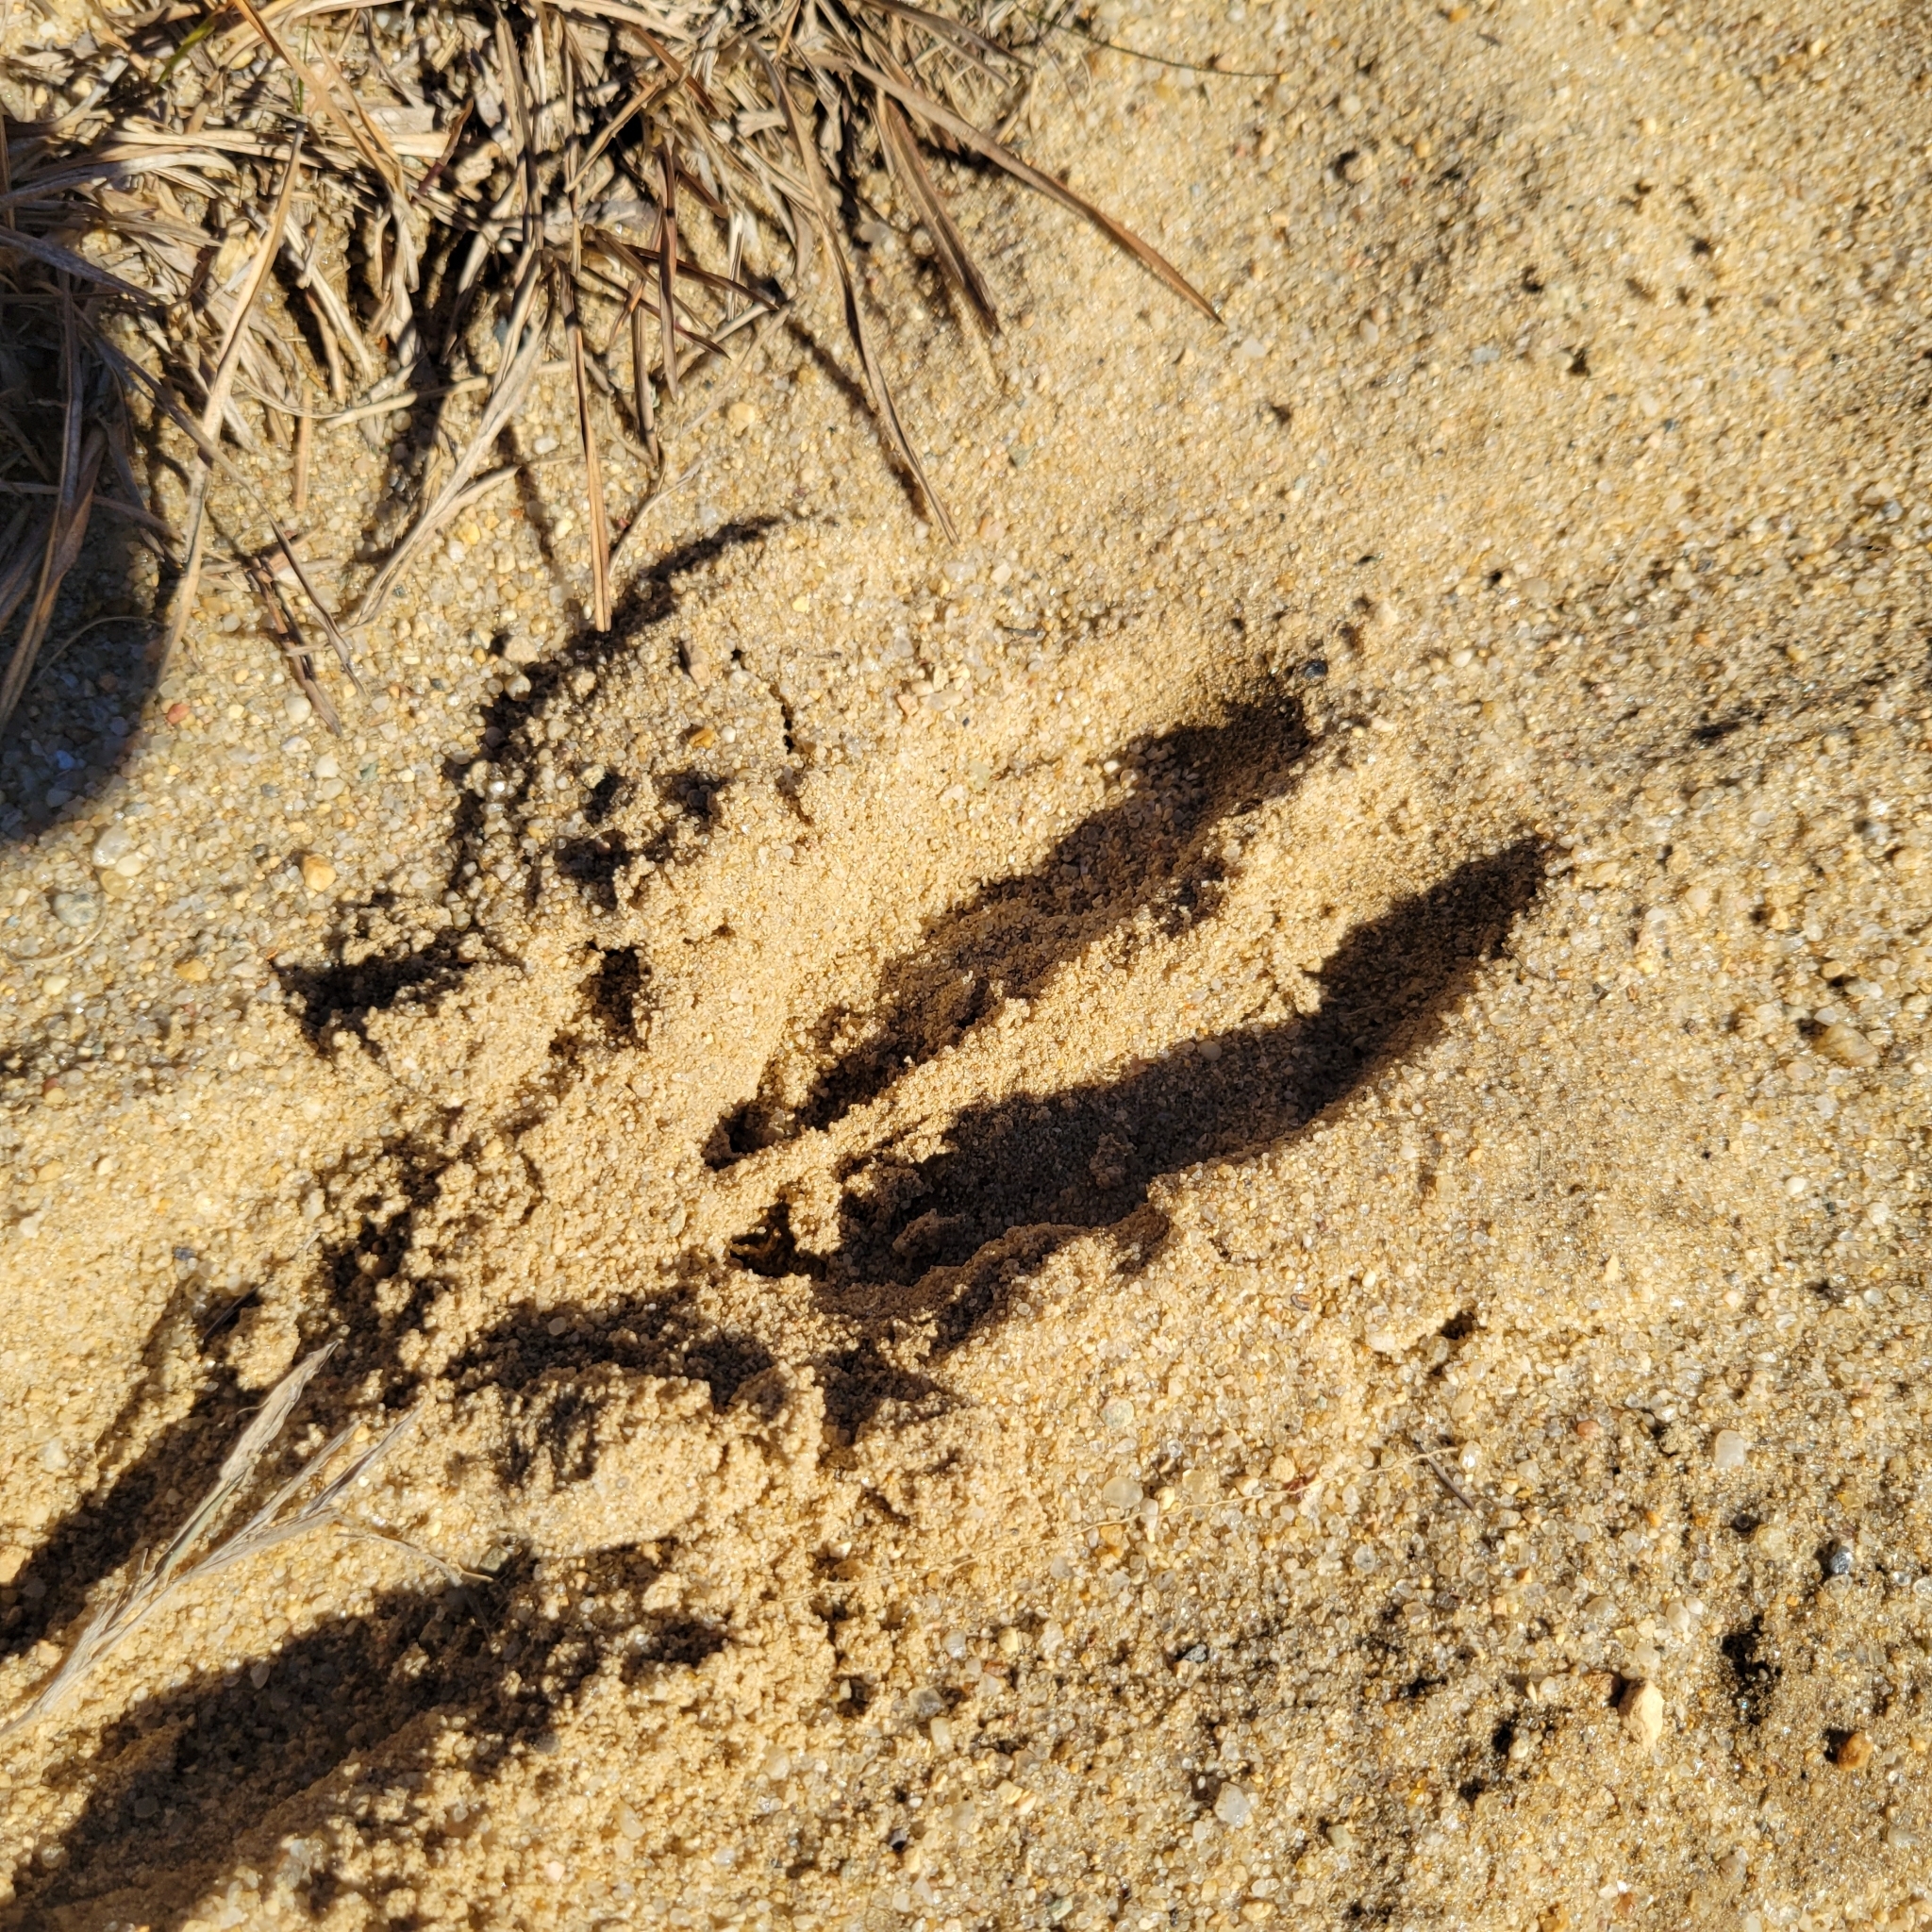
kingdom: Animalia
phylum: Chordata
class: Mammalia
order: Artiodactyla
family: Cervidae
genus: Odocoileus
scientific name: Odocoileus virginianus
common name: White-tailed deer
